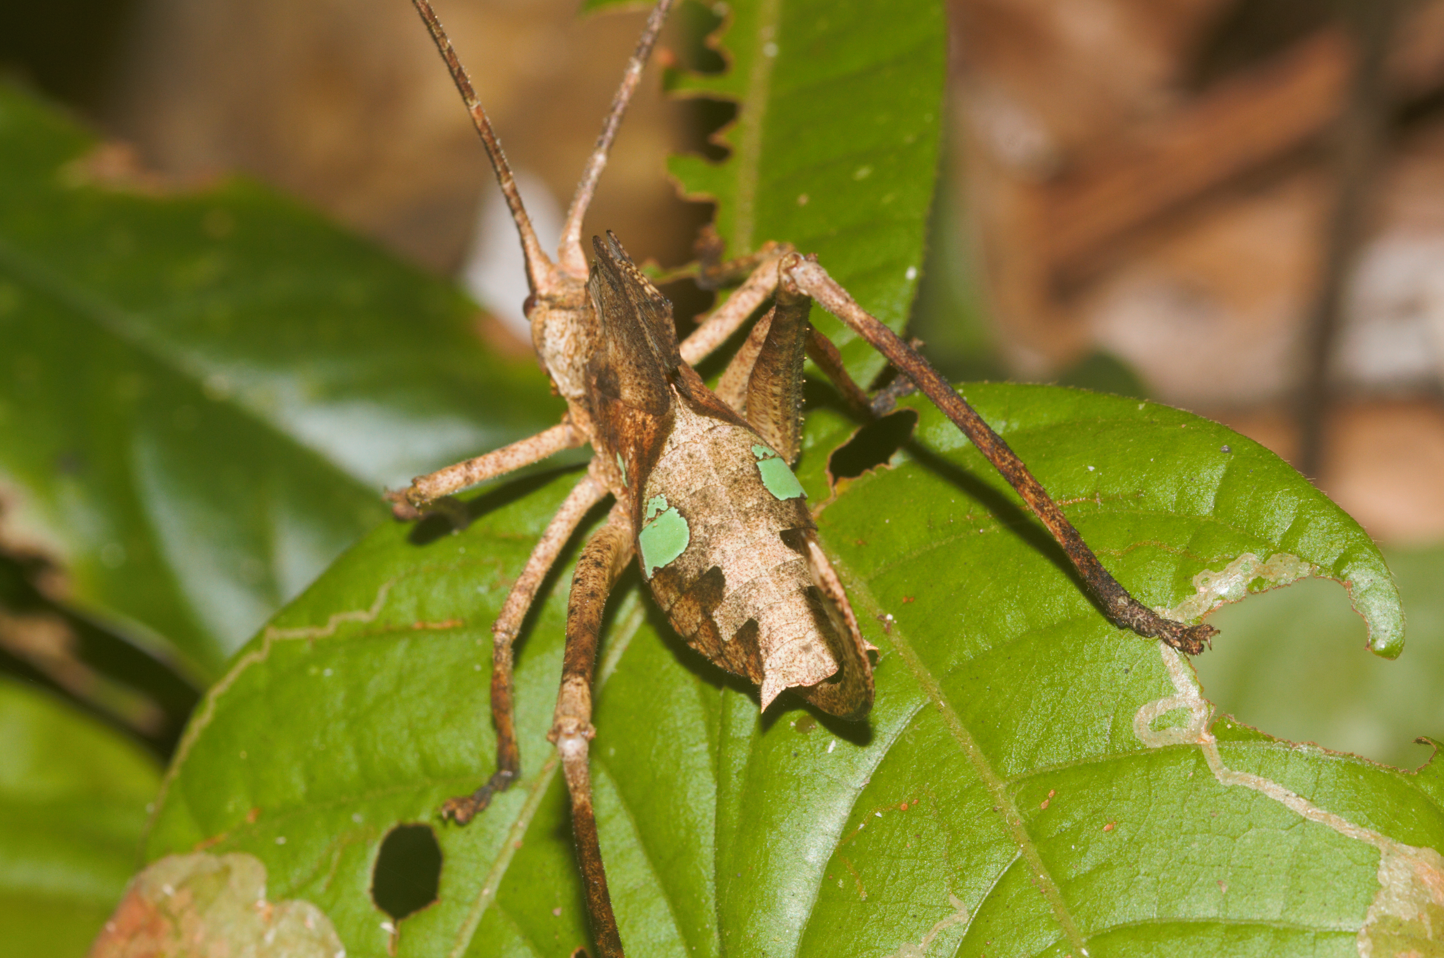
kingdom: Animalia
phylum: Arthropoda
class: Insecta
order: Orthoptera
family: Tettigoniidae
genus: Pterochroza
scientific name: Pterochroza ocellata
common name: Peacock katydid
